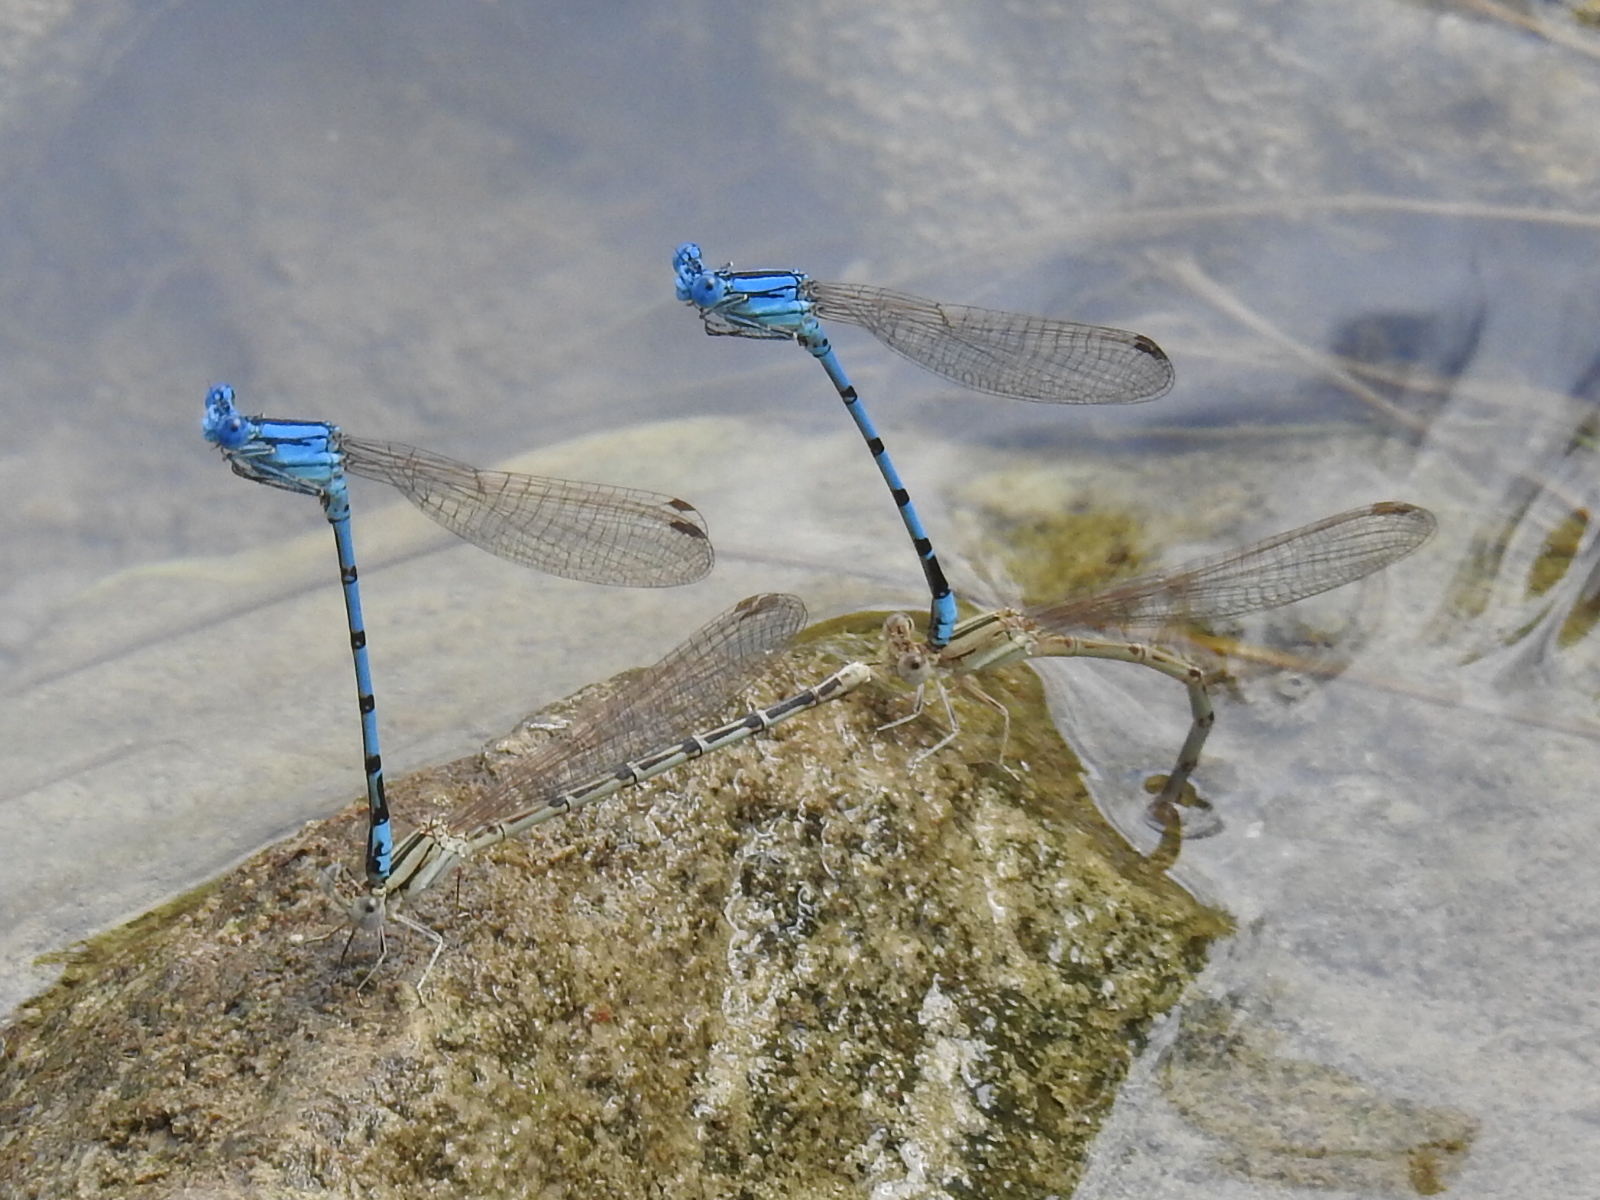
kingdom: Animalia
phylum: Arthropoda
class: Insecta
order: Odonata
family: Coenagrionidae
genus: Argia
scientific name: Argia nahuana
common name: Aztec dancer
